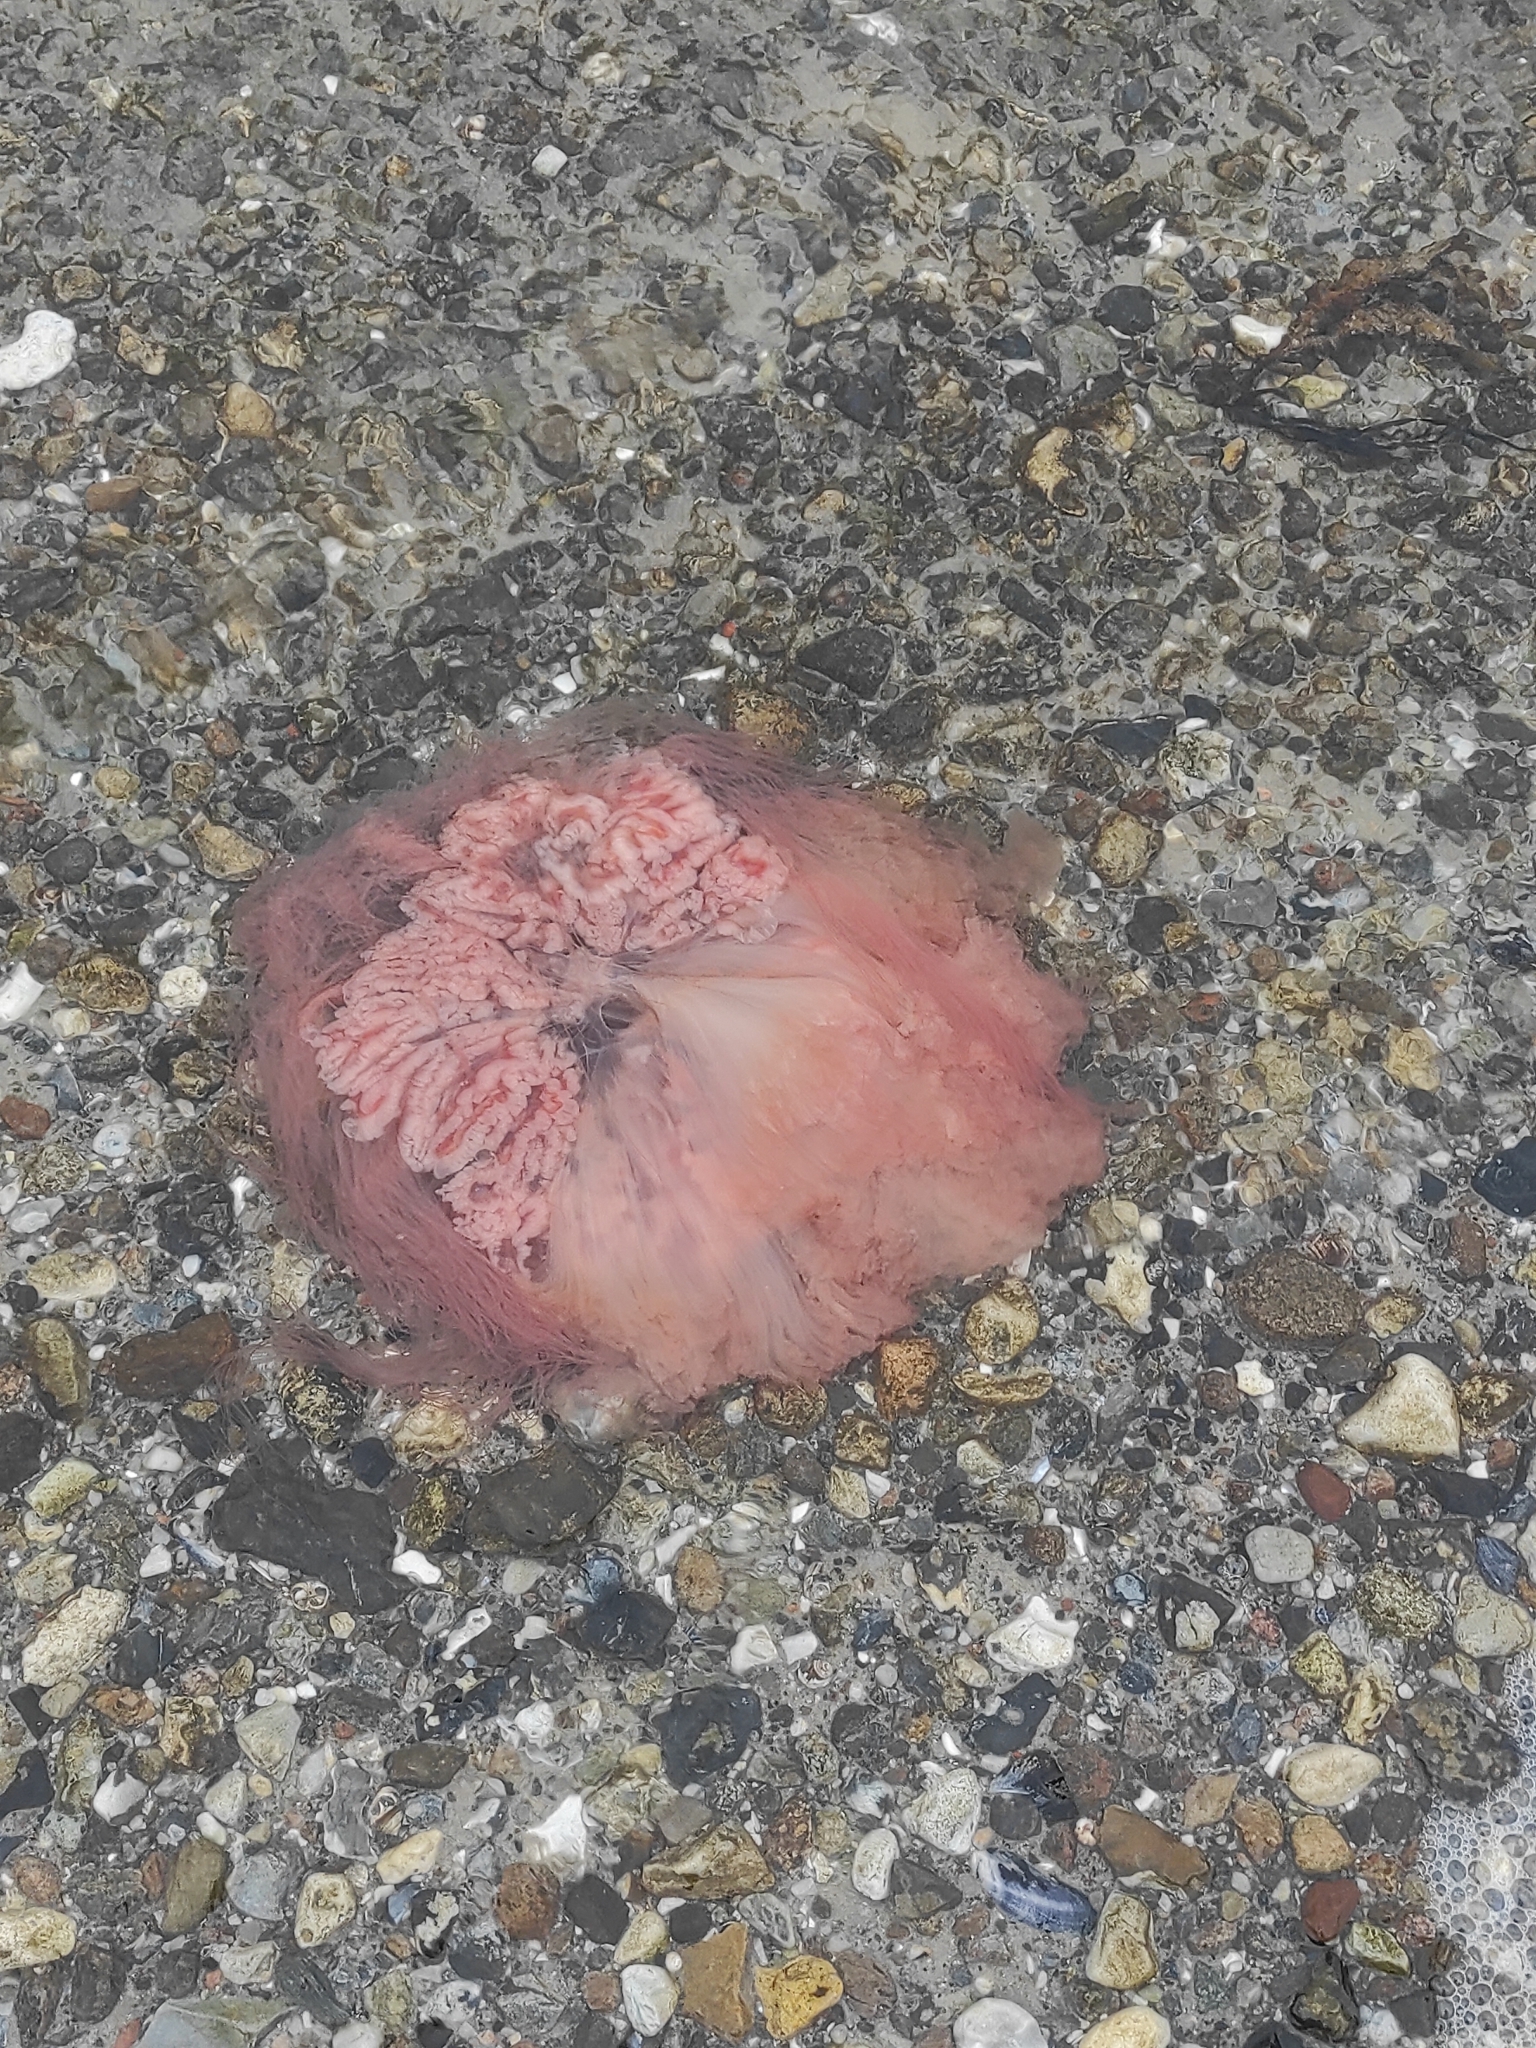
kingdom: Animalia
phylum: Cnidaria
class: Scyphozoa
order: Semaeostomeae
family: Cyaneidae
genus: Cyanea
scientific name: Cyanea capillata
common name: Lion's mane jellyfish
